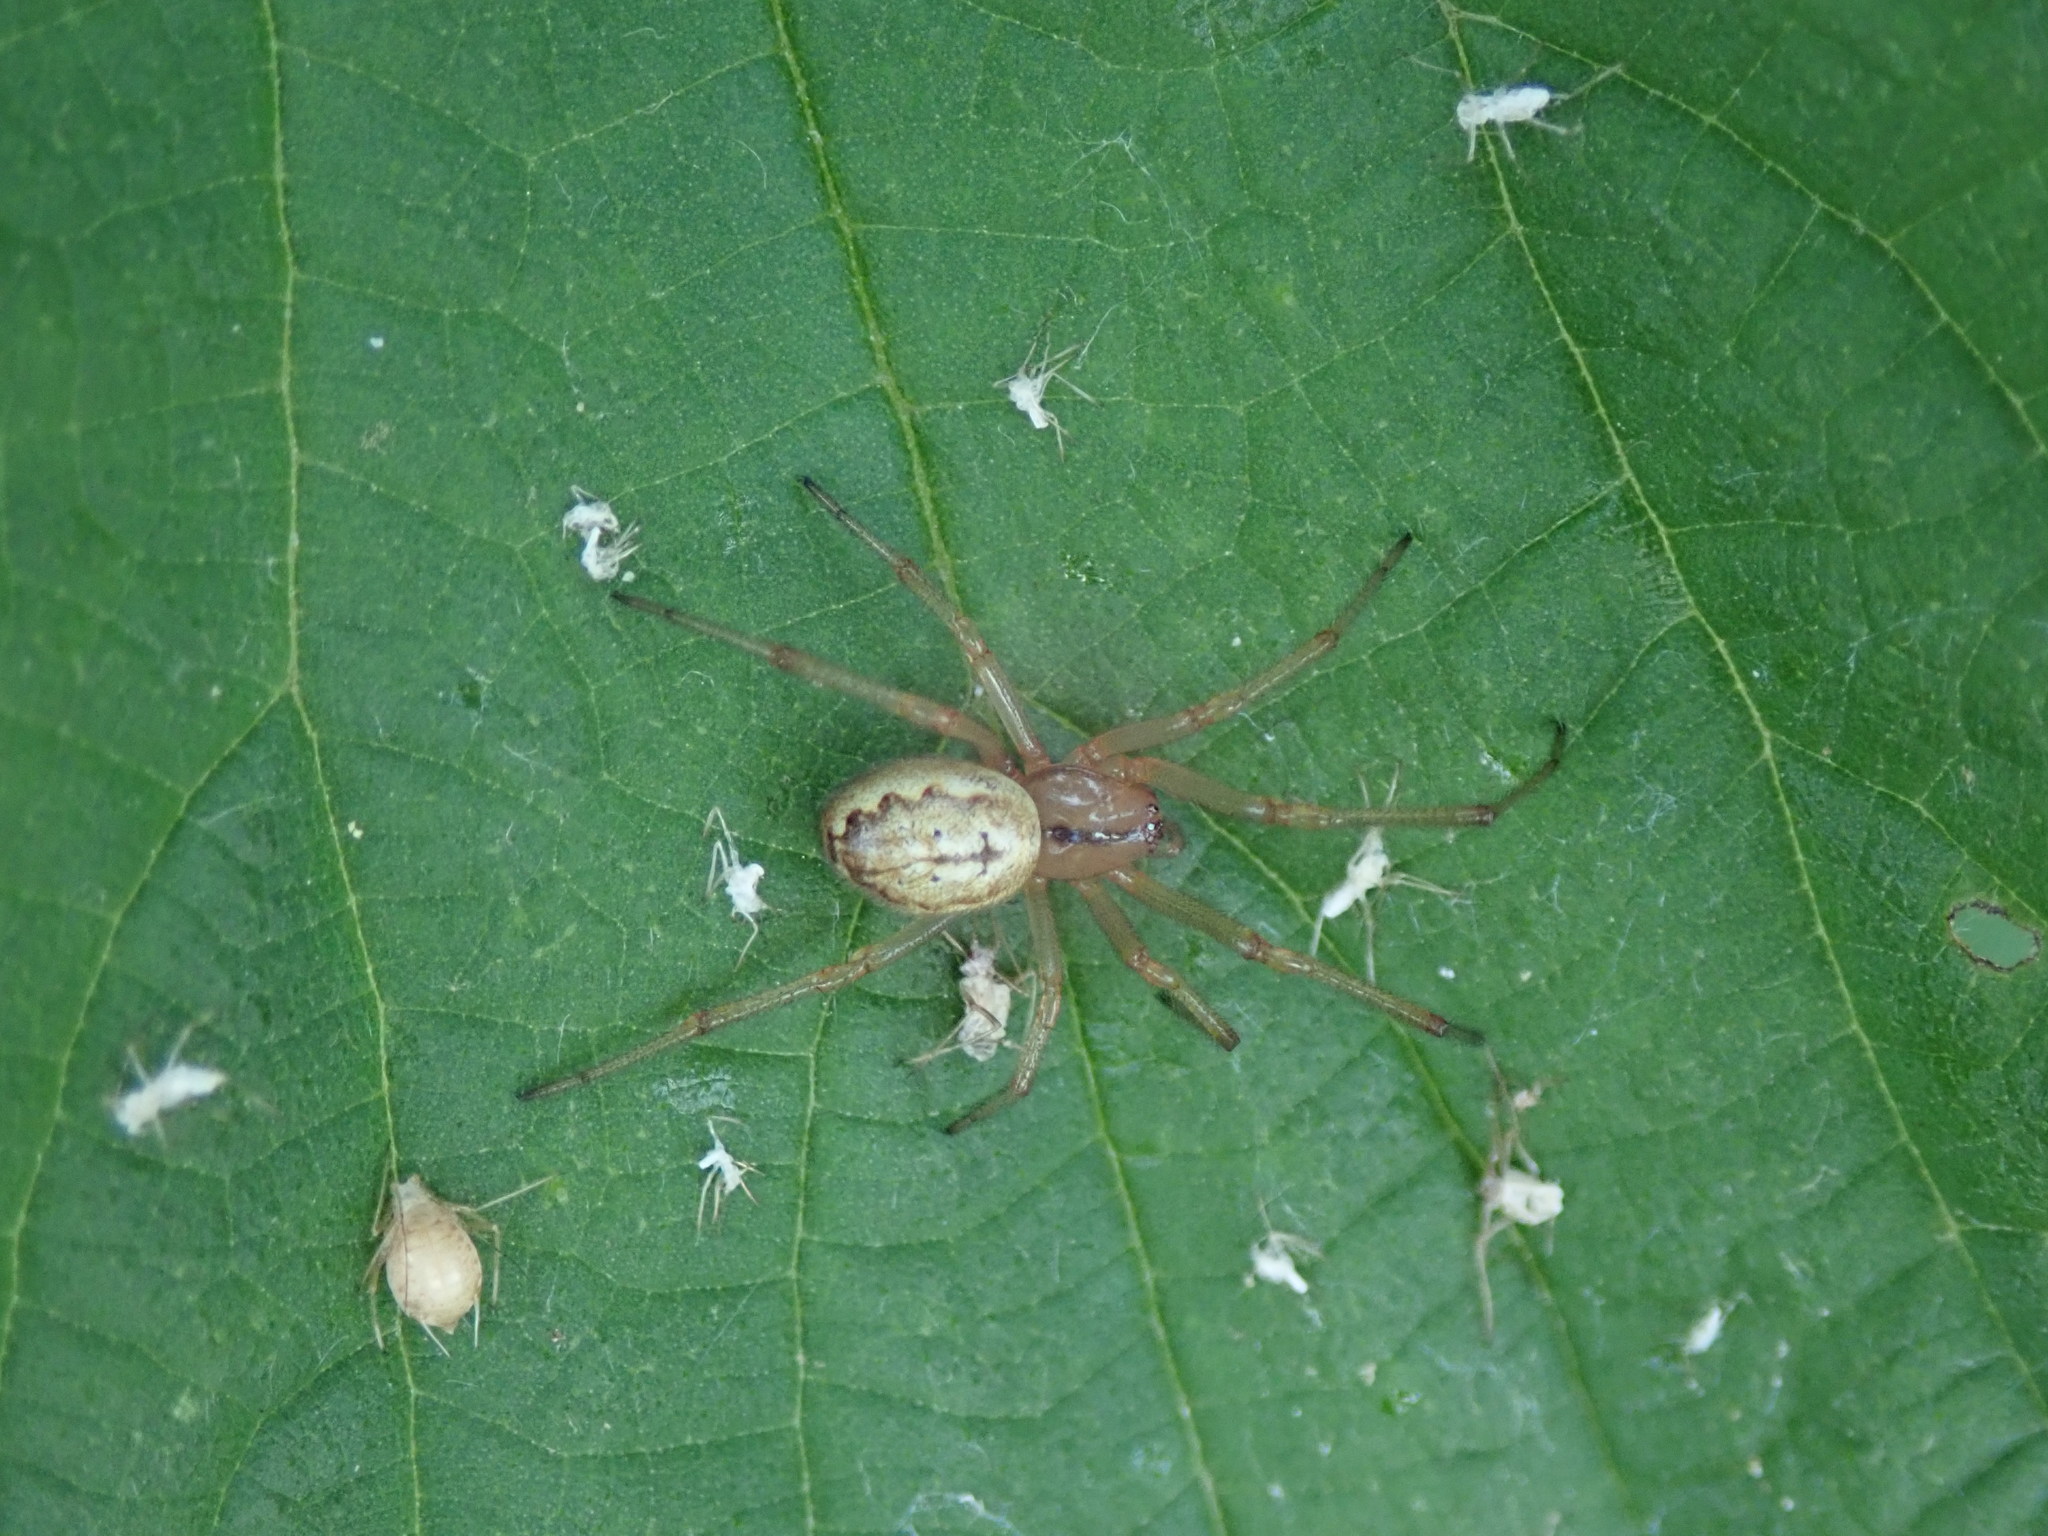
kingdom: Animalia
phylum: Arthropoda
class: Arachnida
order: Araneae
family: Theridiidae
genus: Enoplognatha
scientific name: Enoplognatha ovata
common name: Common candy-striped spider
